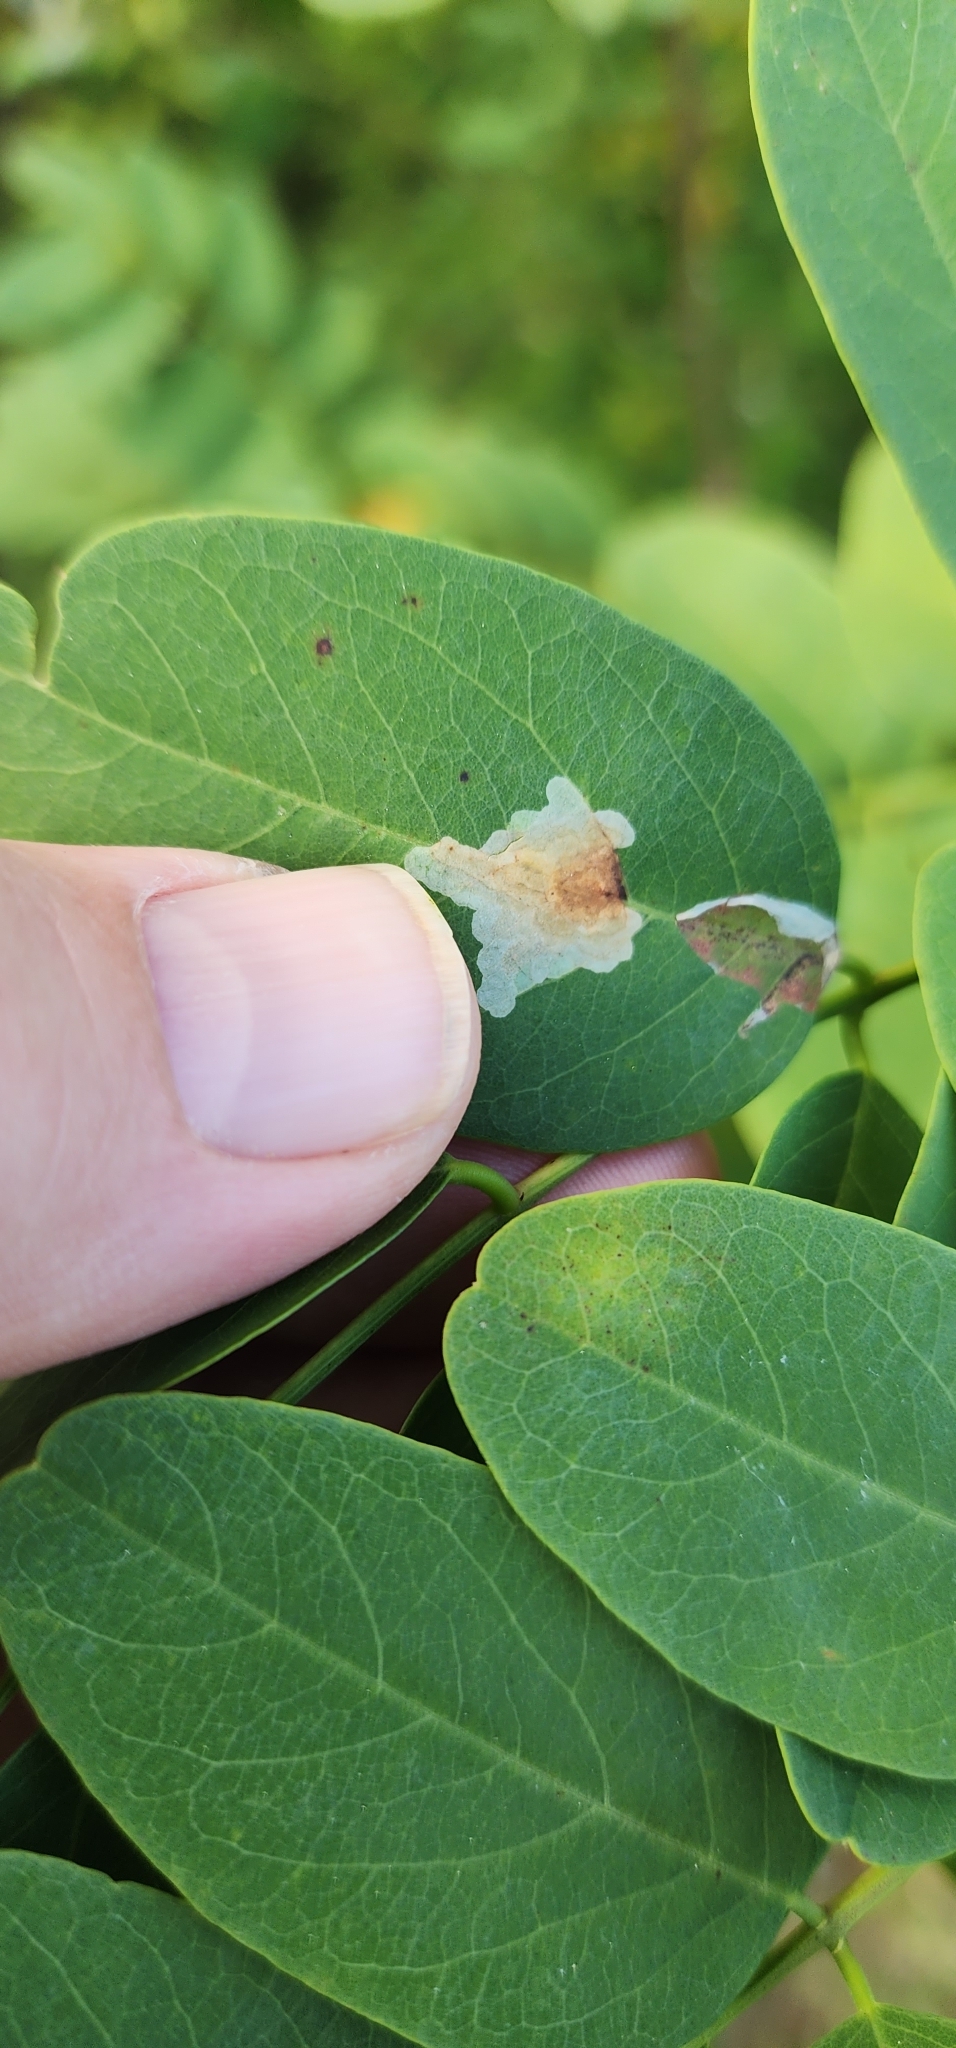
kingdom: Animalia
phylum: Arthropoda
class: Insecta
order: Lepidoptera
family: Gracillariidae
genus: Parectopa
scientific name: Parectopa robiniella
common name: Locust digitate leafminer
